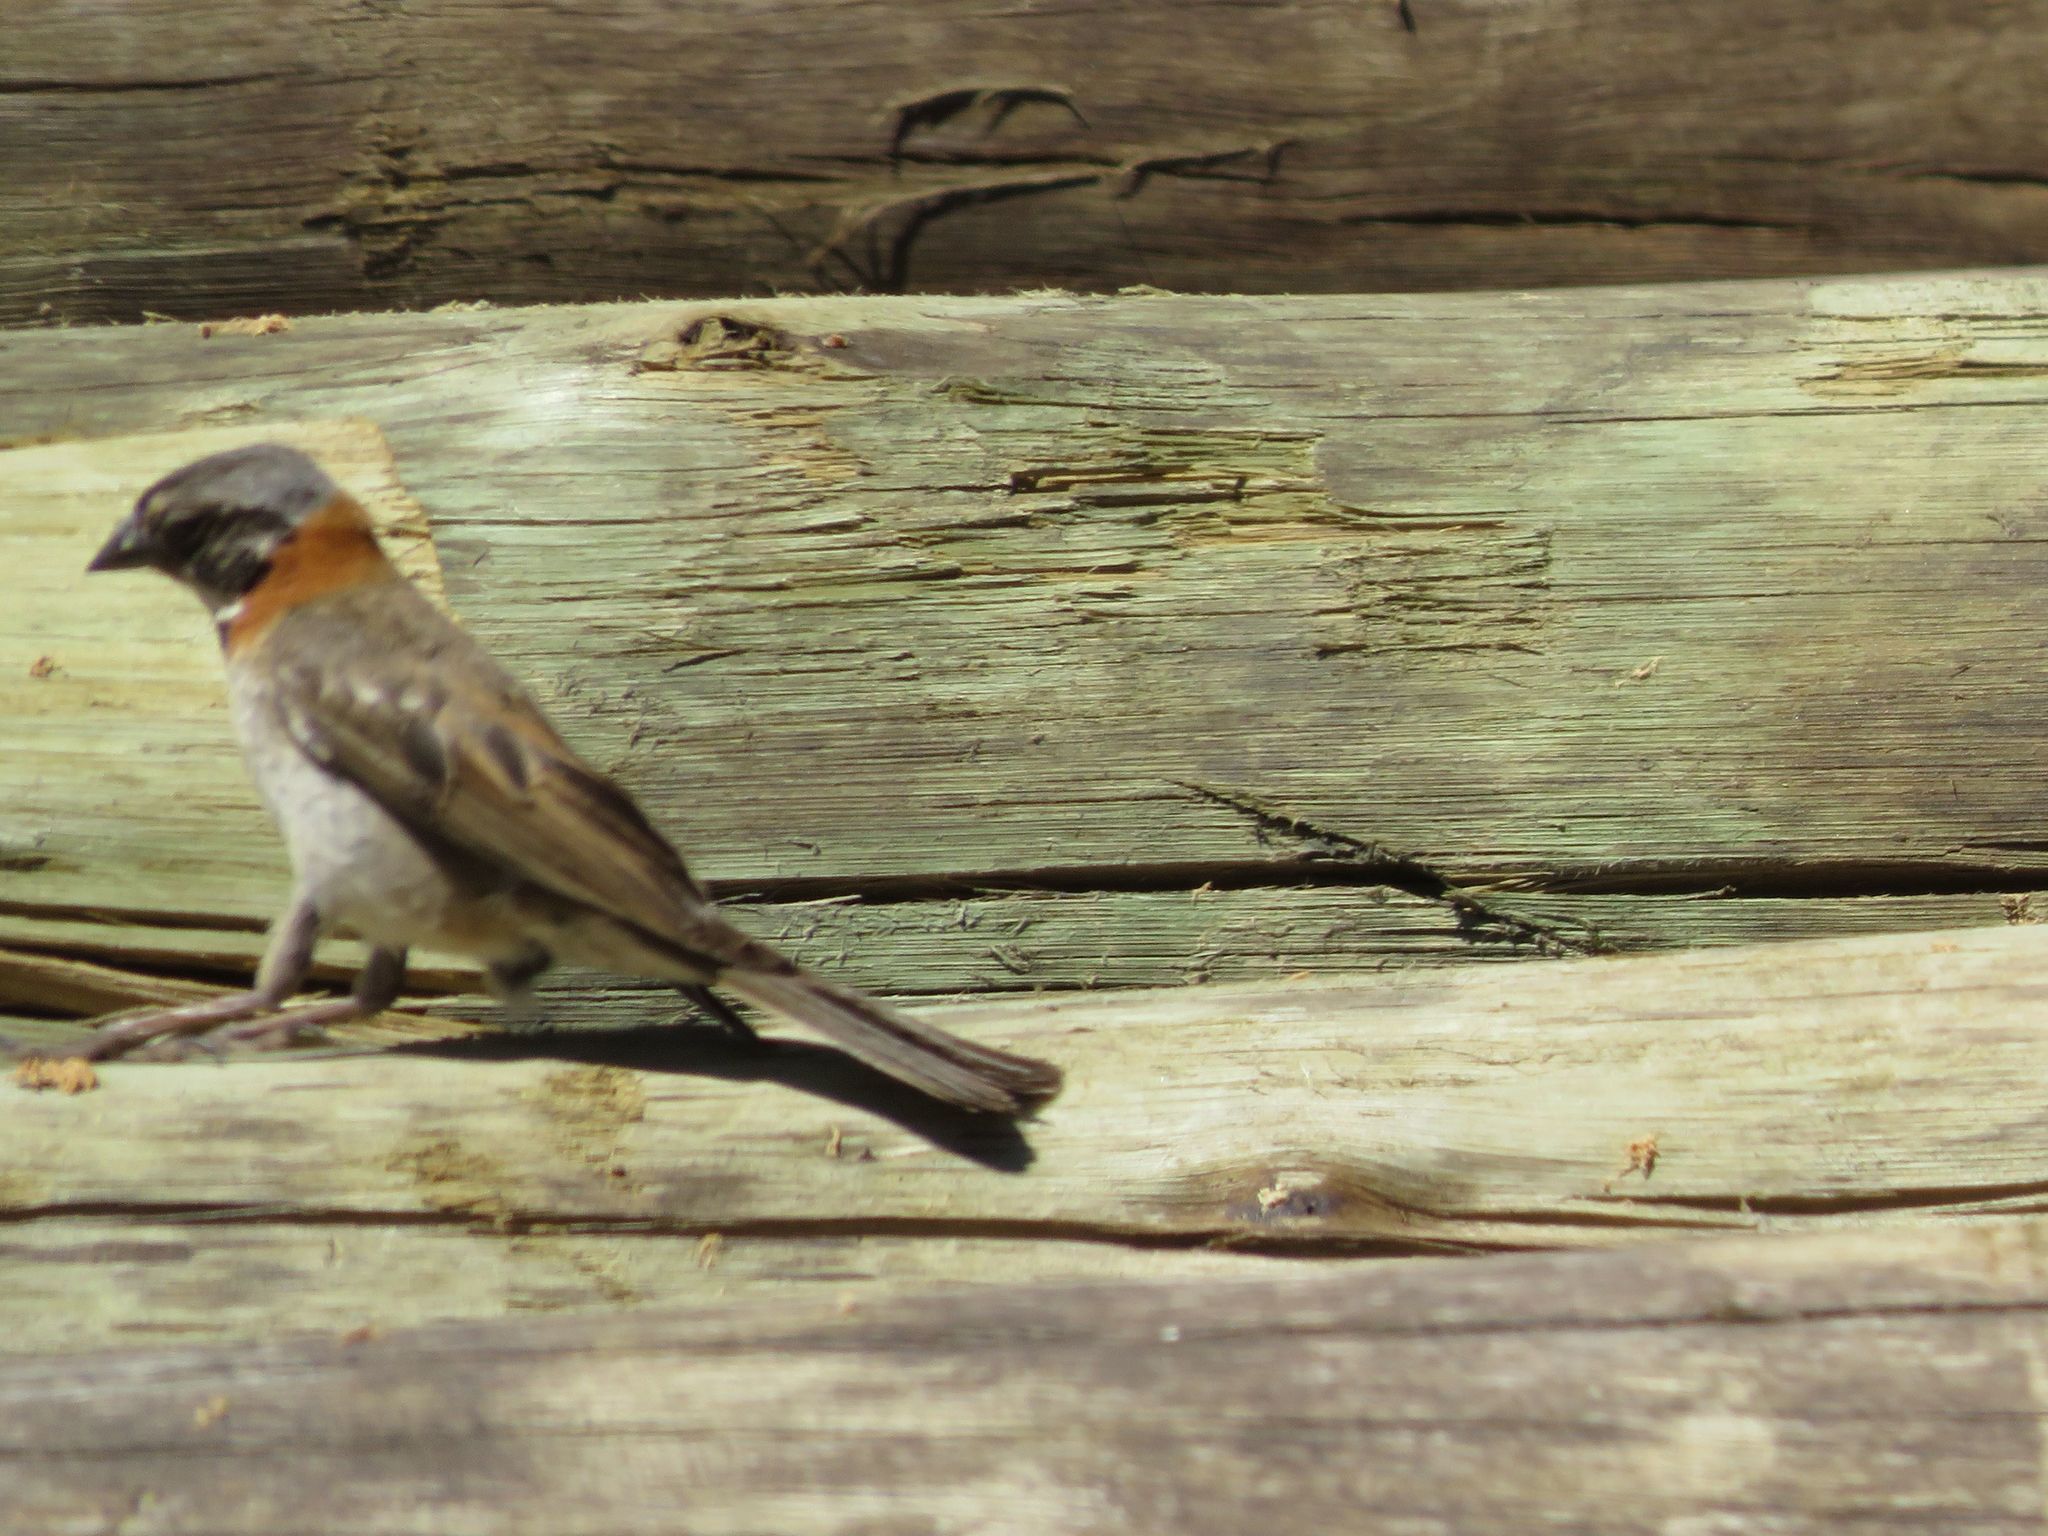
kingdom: Animalia
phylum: Chordata
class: Aves
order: Passeriformes
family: Passerellidae
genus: Zonotrichia
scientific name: Zonotrichia capensis
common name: Rufous-collared sparrow
